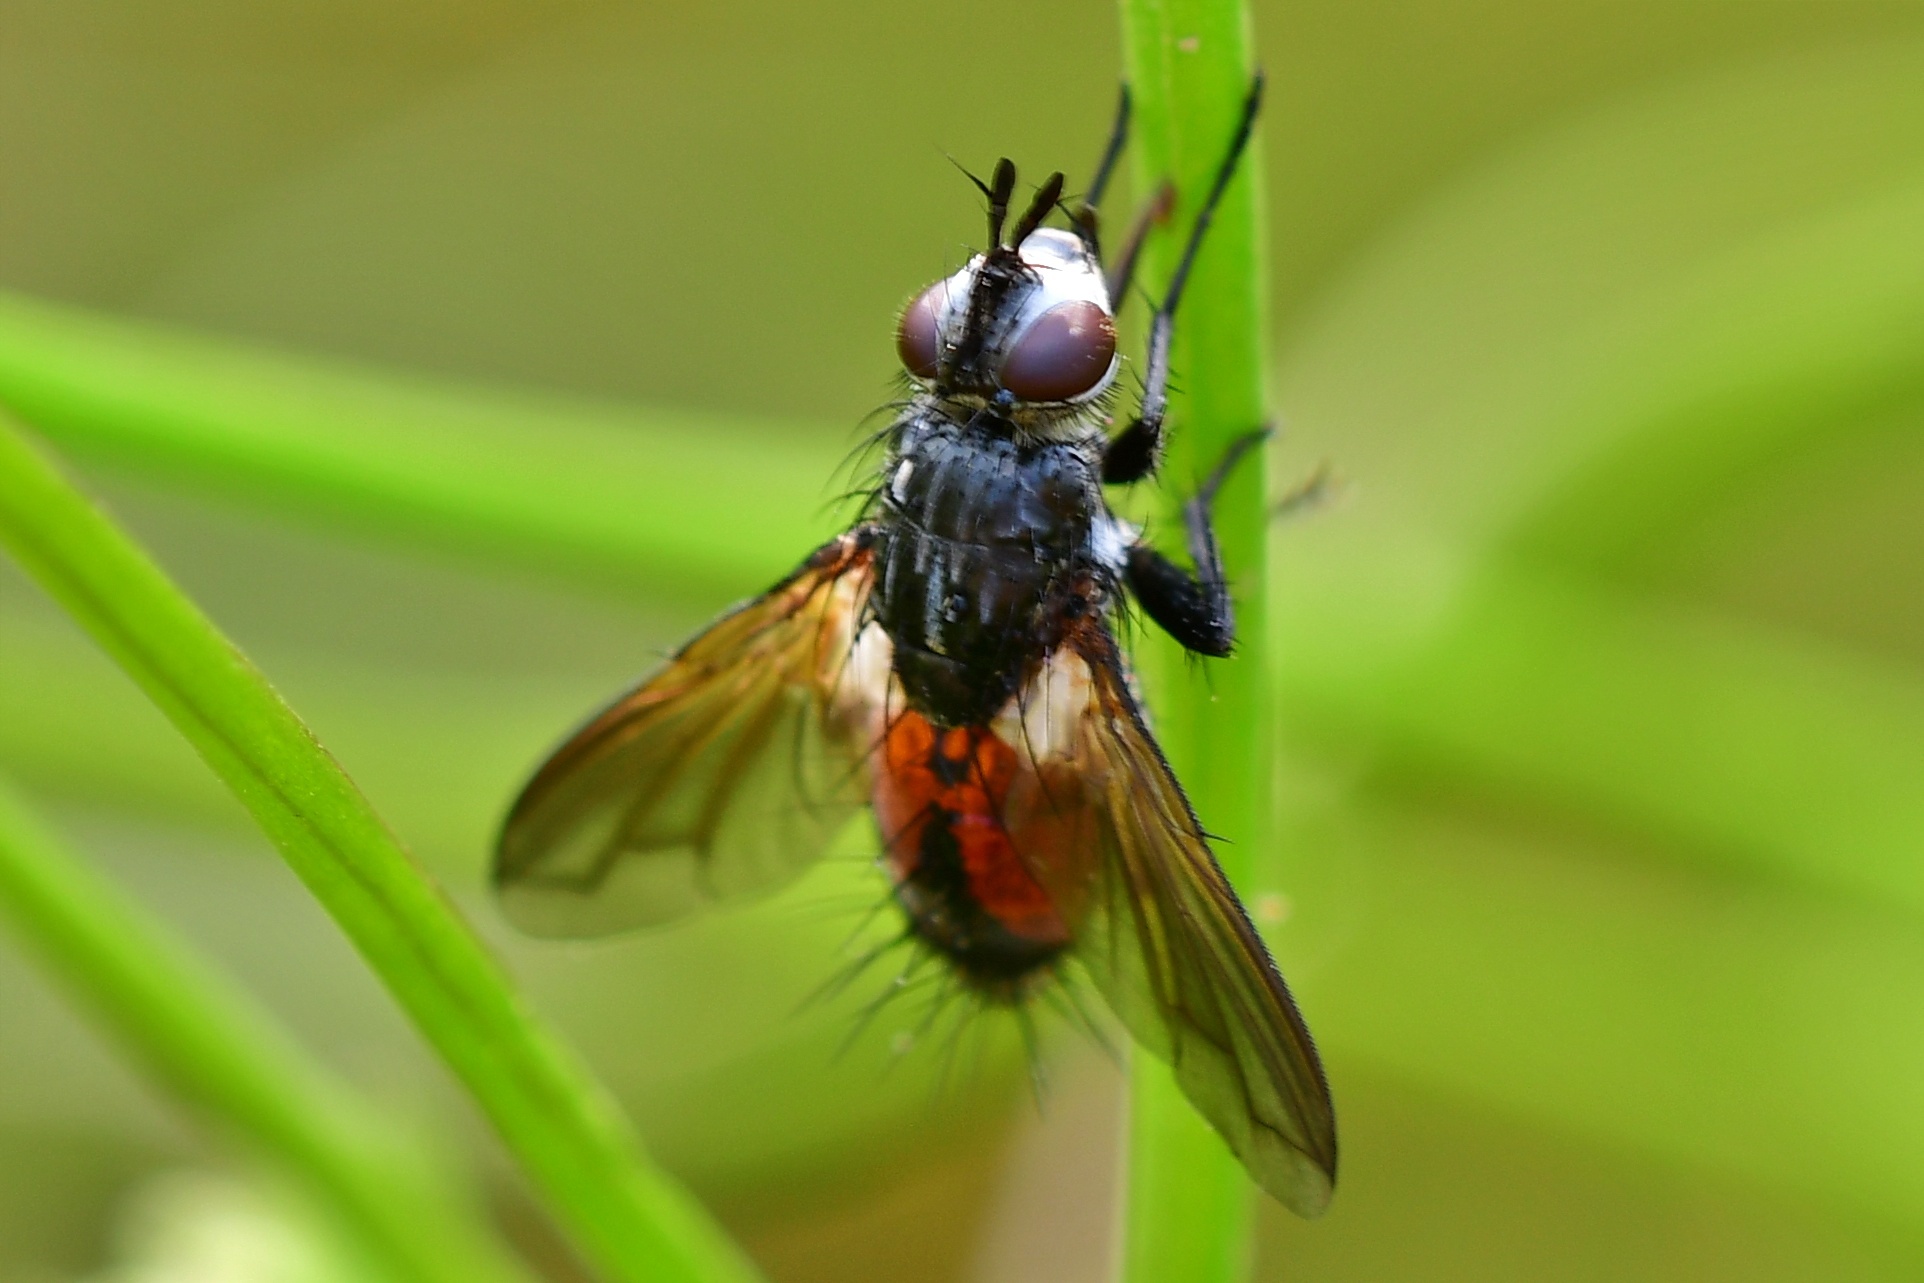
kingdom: Animalia
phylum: Arthropoda
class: Insecta
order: Diptera
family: Tachinidae
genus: Eriothrix
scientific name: Eriothrix rufomaculatus
